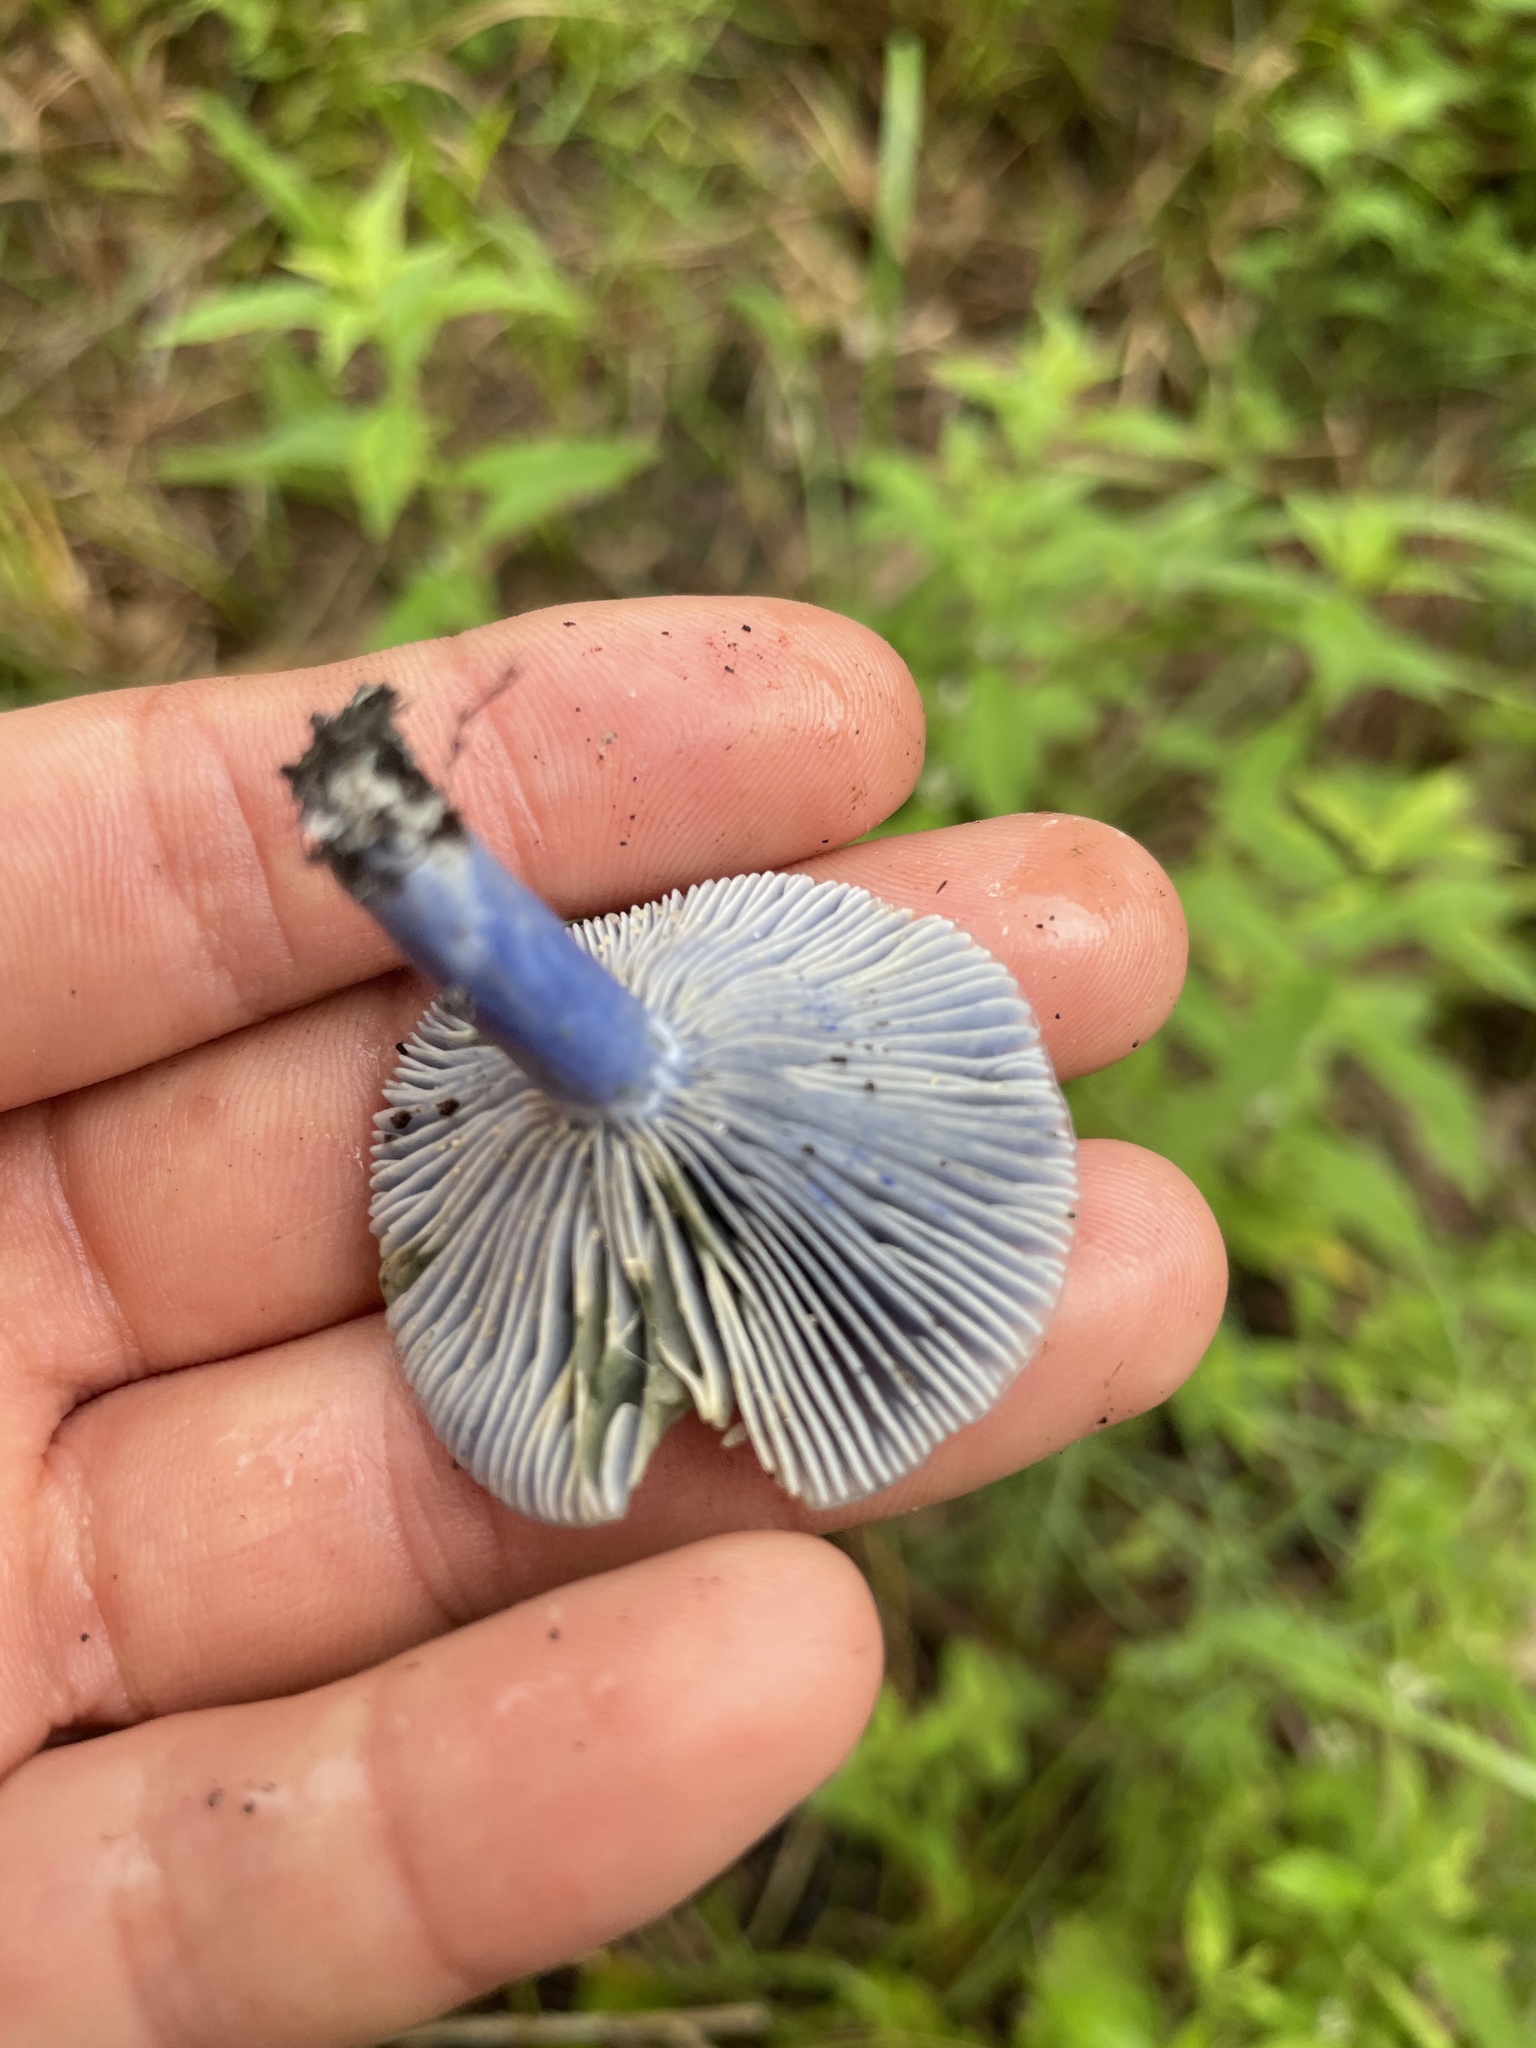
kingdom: Fungi
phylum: Basidiomycota
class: Agaricomycetes
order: Russulales
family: Russulaceae
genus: Lactarius
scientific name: Lactarius indigo
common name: Indigo milk cap
